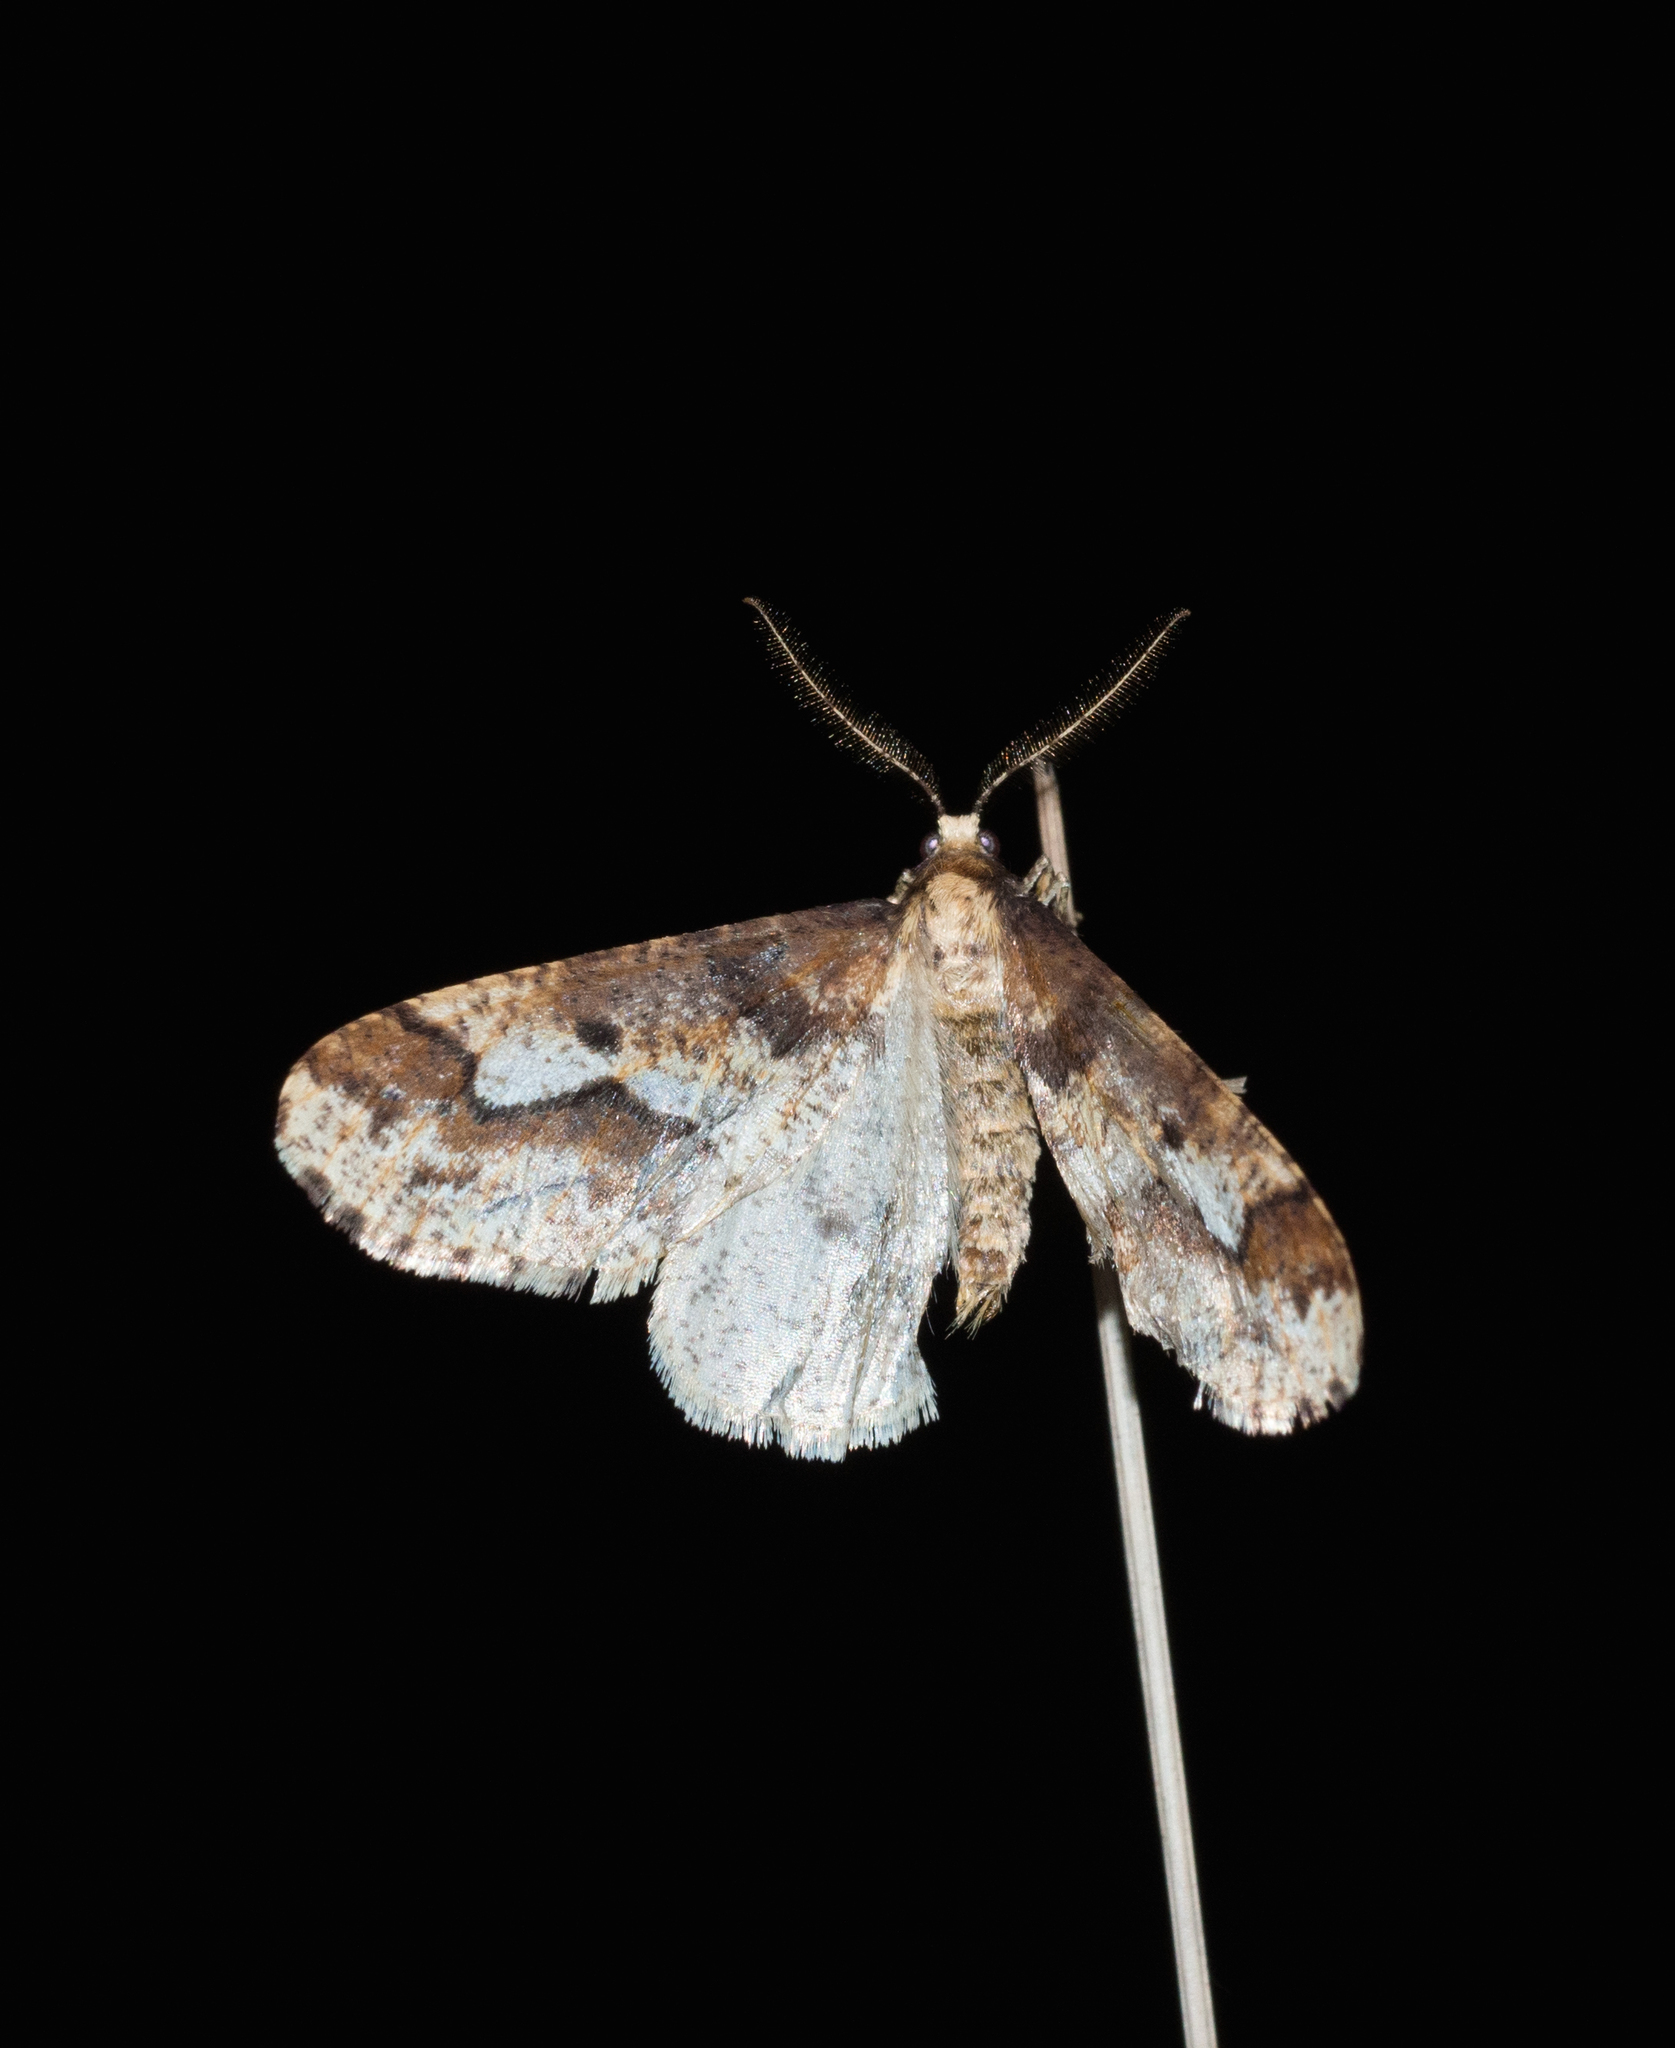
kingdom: Animalia
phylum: Arthropoda
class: Insecta
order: Lepidoptera
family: Geometridae
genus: Erannis
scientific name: Erannis defoliaria
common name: Mottled umber
